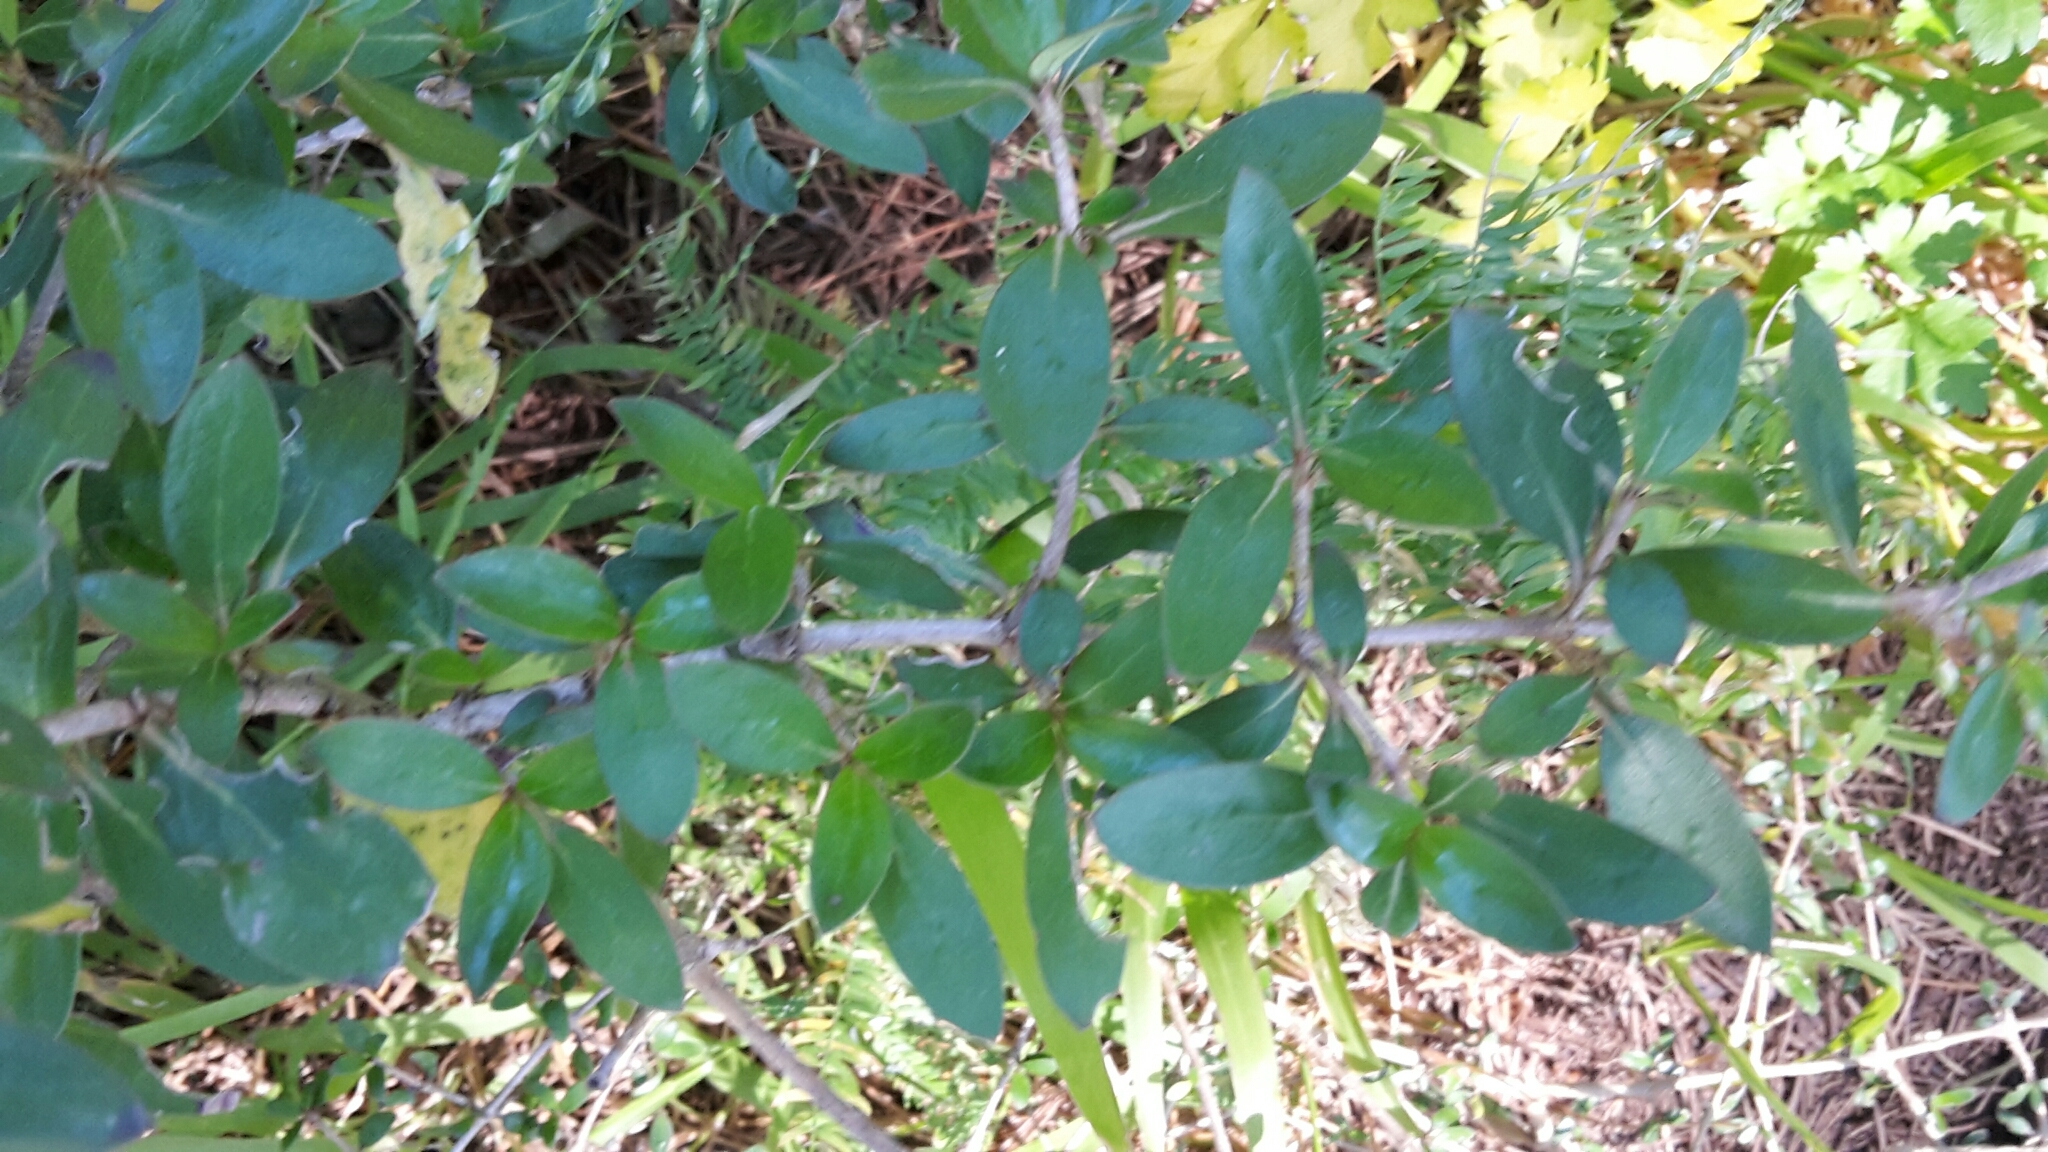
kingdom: Plantae
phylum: Tracheophyta
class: Magnoliopsida
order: Gentianales
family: Rubiaceae
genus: Coprosma
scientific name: Coprosma cunninghamii
